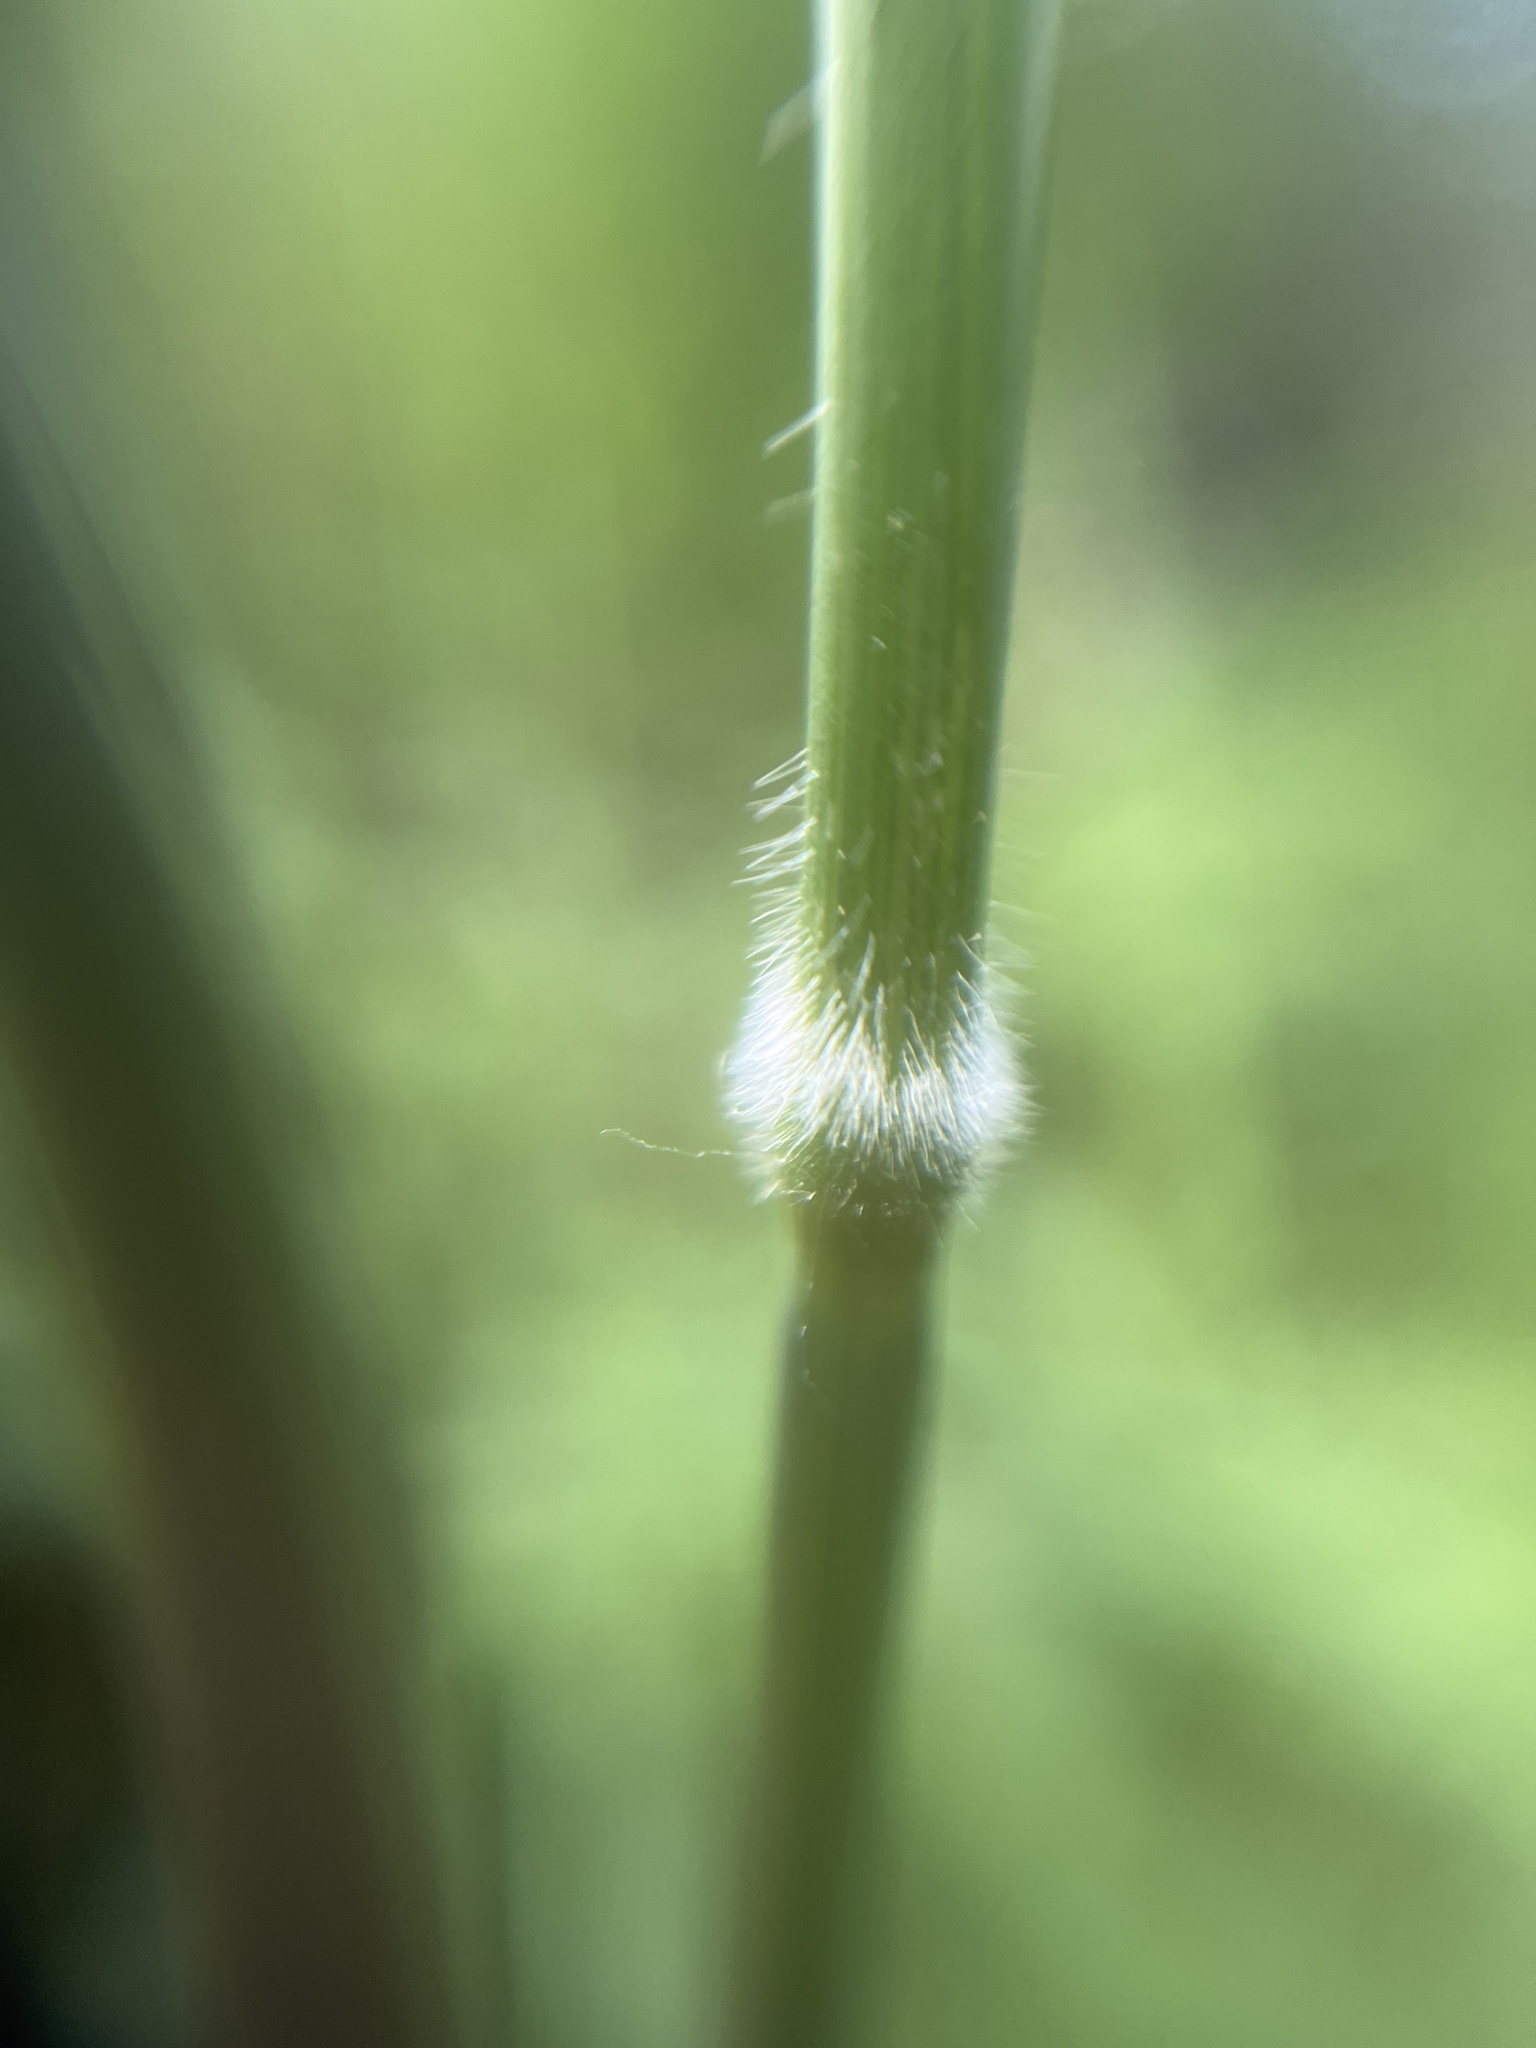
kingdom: Plantae
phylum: Tracheophyta
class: Liliopsida
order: Poales
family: Poaceae
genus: Arrhenatherum
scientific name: Arrhenatherum elatius
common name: Tall oatgrass
